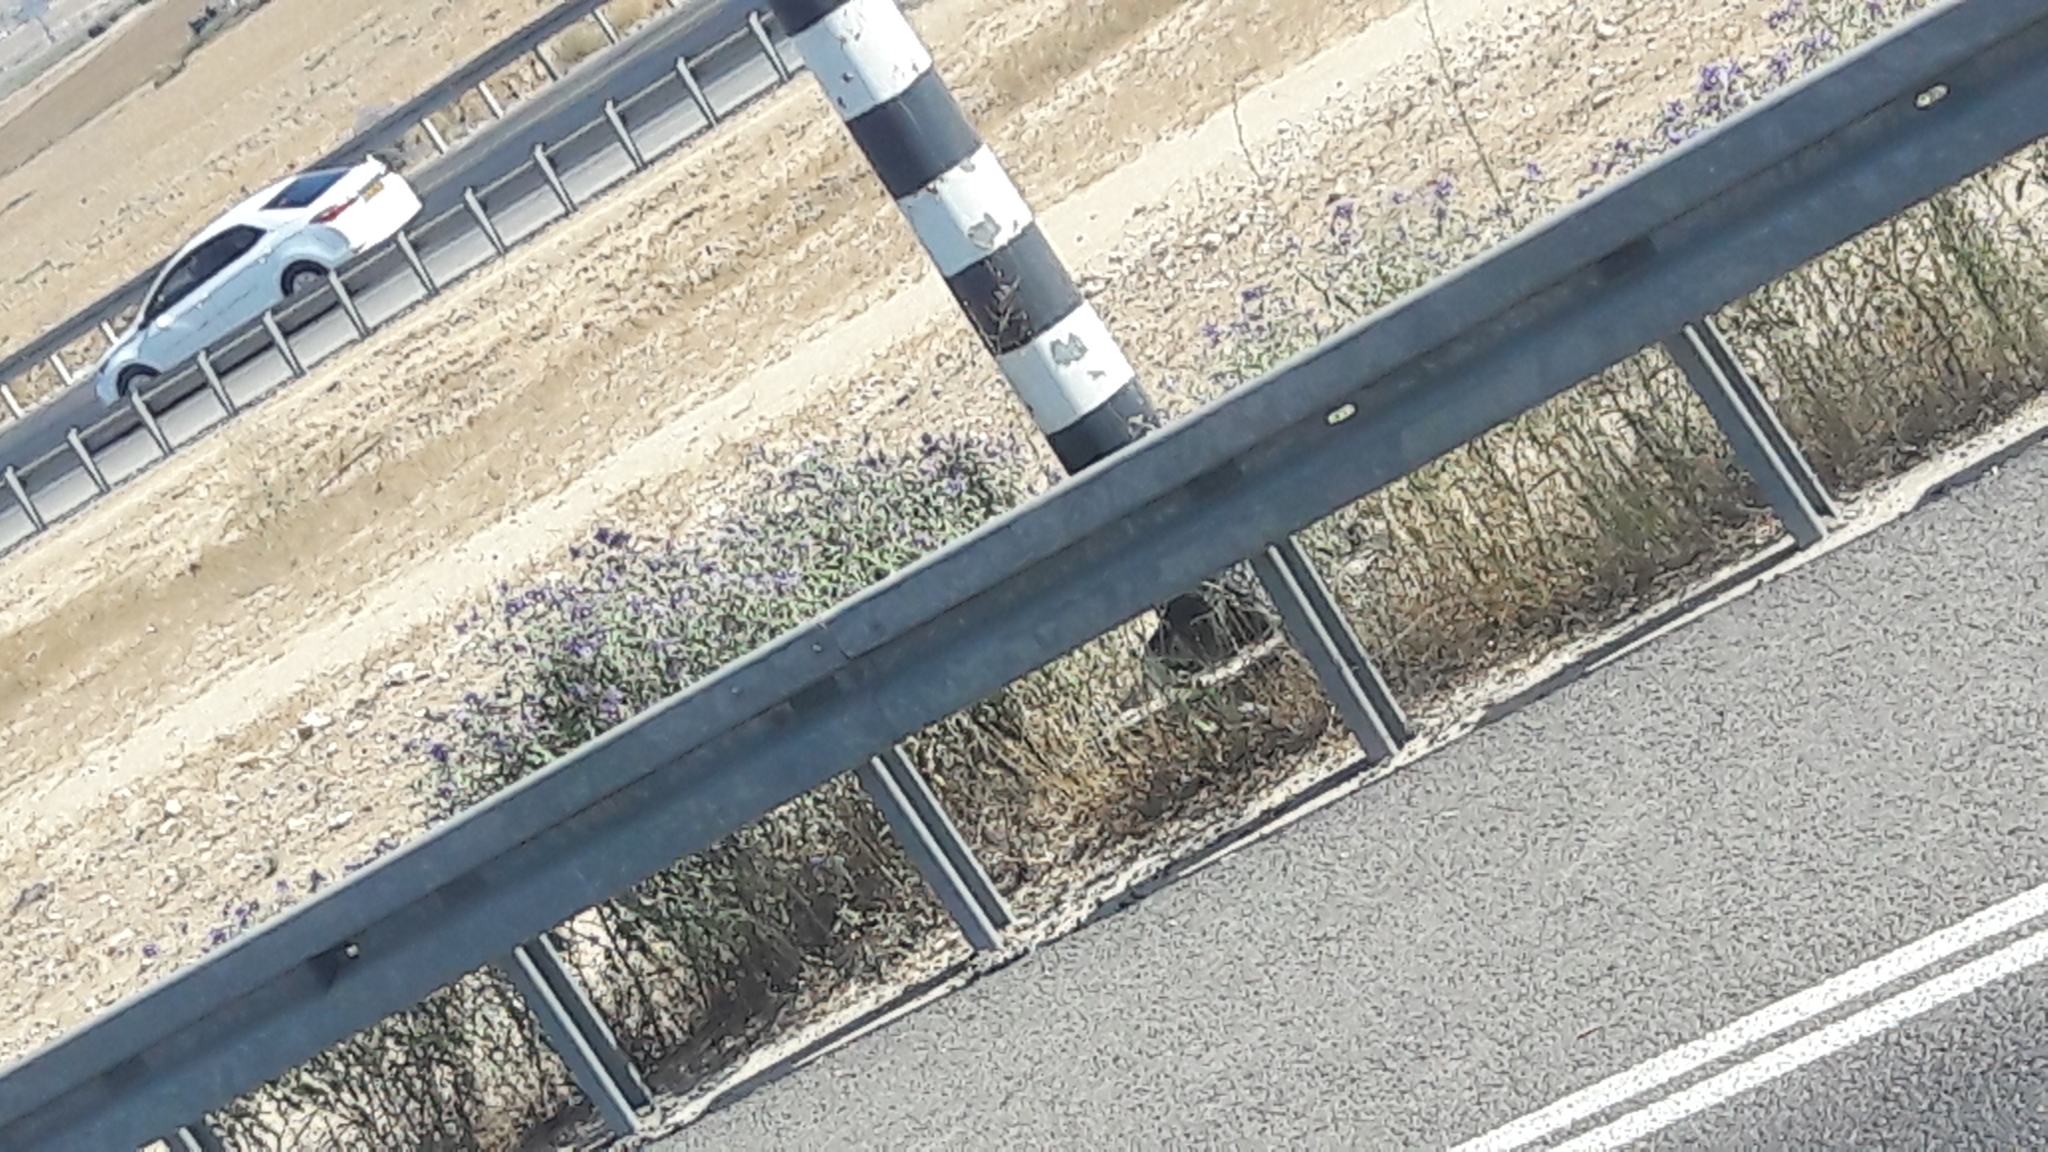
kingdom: Plantae
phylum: Tracheophyta
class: Magnoliopsida
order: Solanales
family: Solanaceae
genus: Solanum
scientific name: Solanum elaeagnifolium
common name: Silverleaf nightshade
